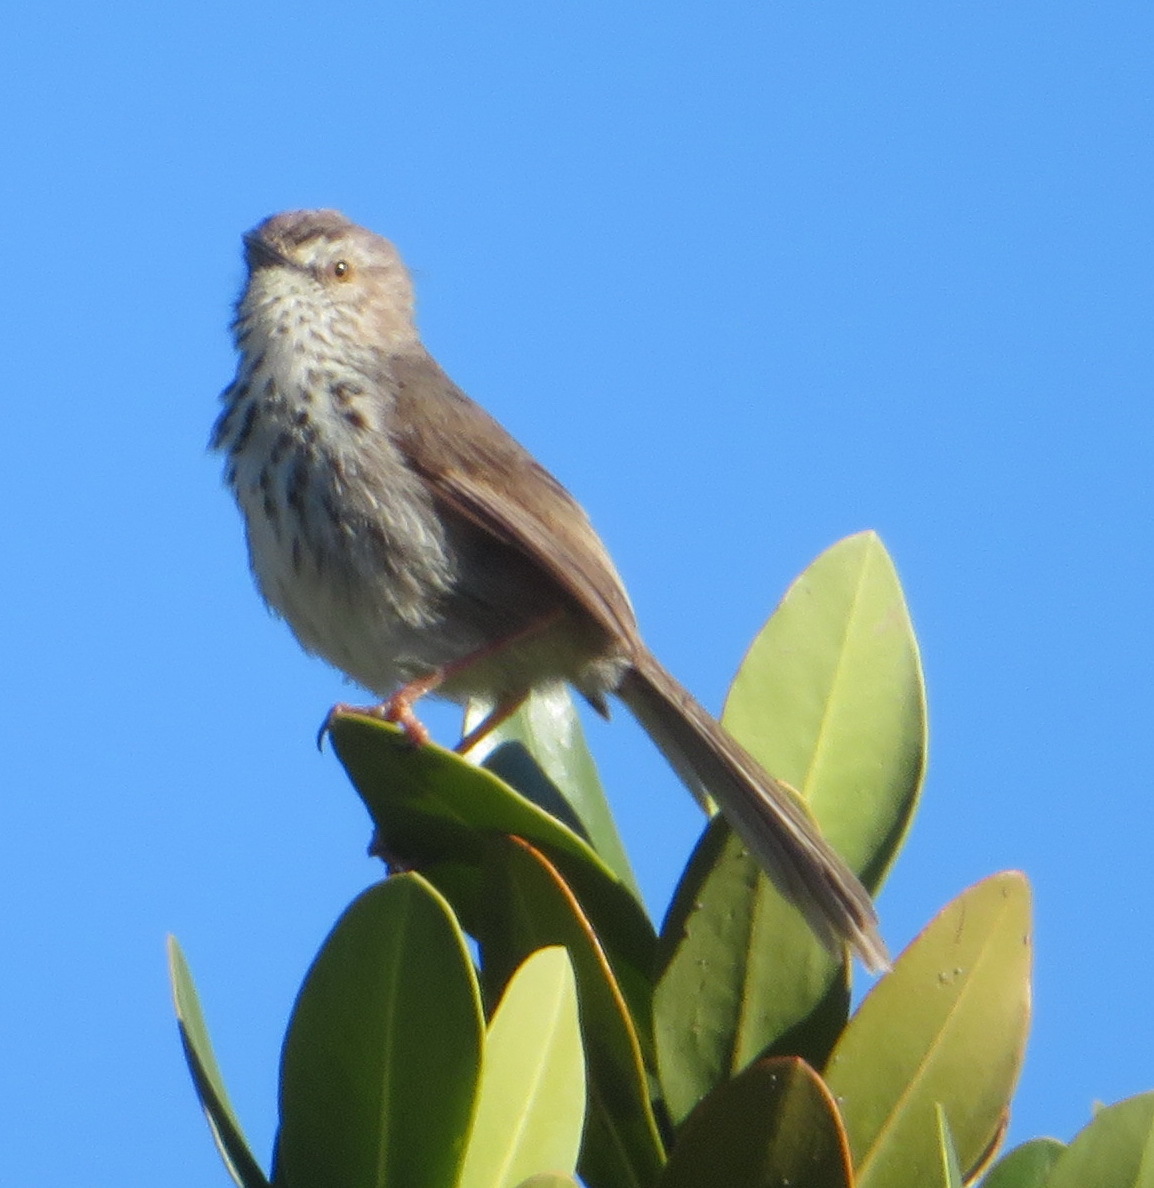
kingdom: Animalia
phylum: Chordata
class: Aves
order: Passeriformes
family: Cisticolidae
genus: Prinia
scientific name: Prinia maculosa
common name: Karoo prinia
